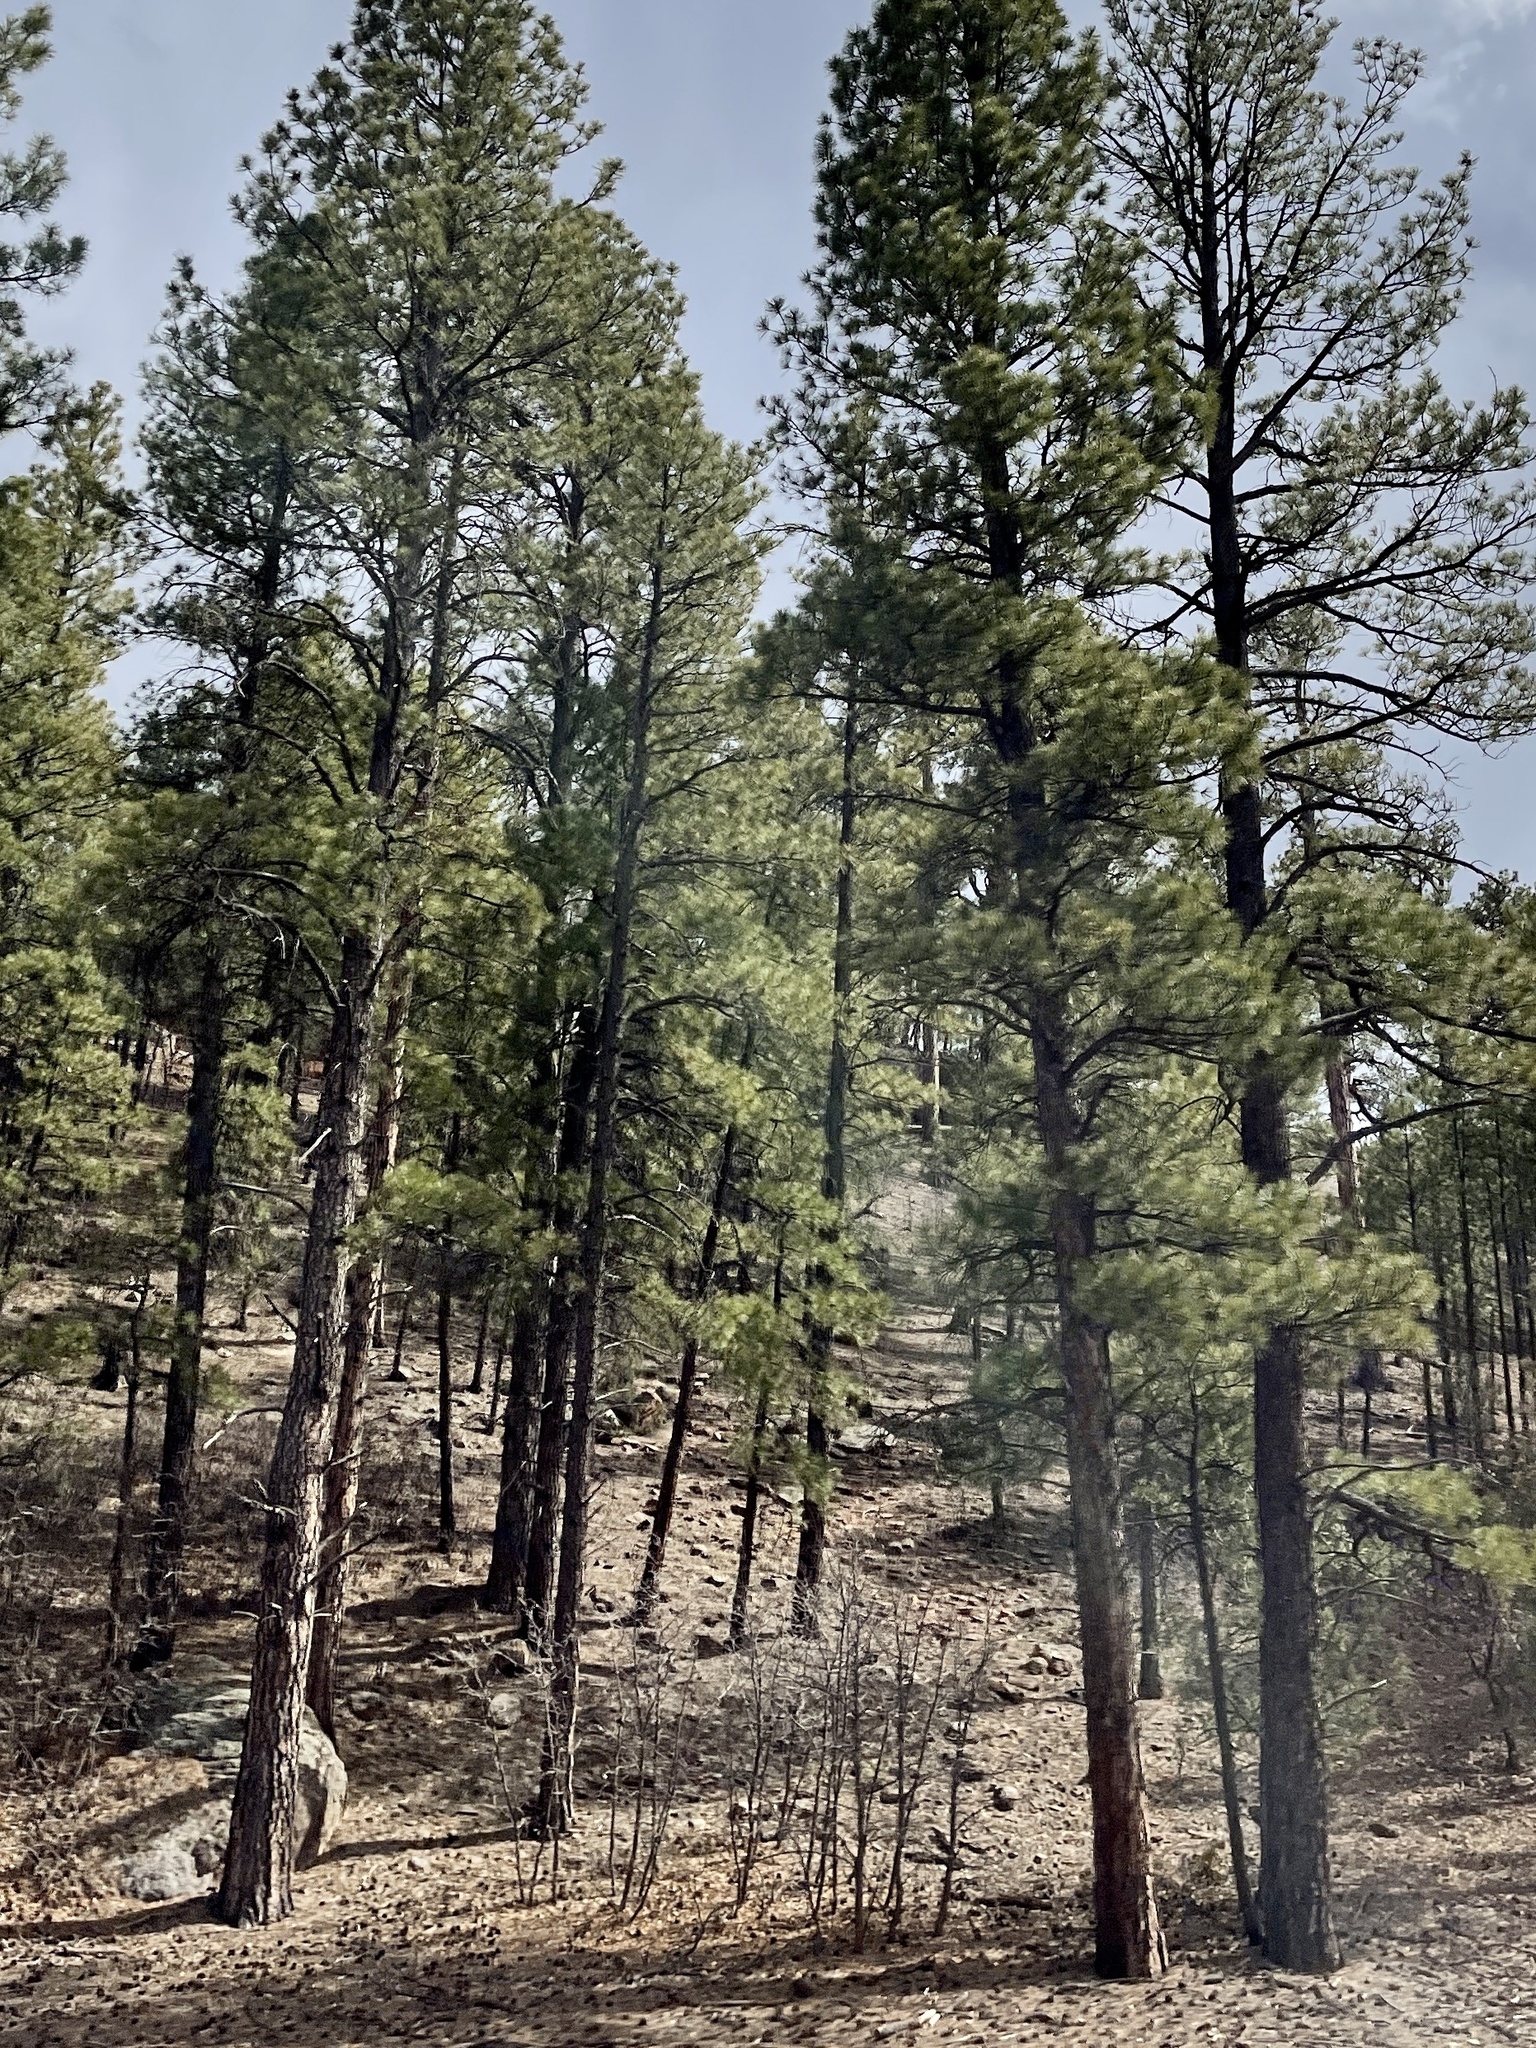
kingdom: Plantae
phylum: Tracheophyta
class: Pinopsida
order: Pinales
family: Pinaceae
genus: Pinus
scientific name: Pinus ponderosa
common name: Western yellow-pine
